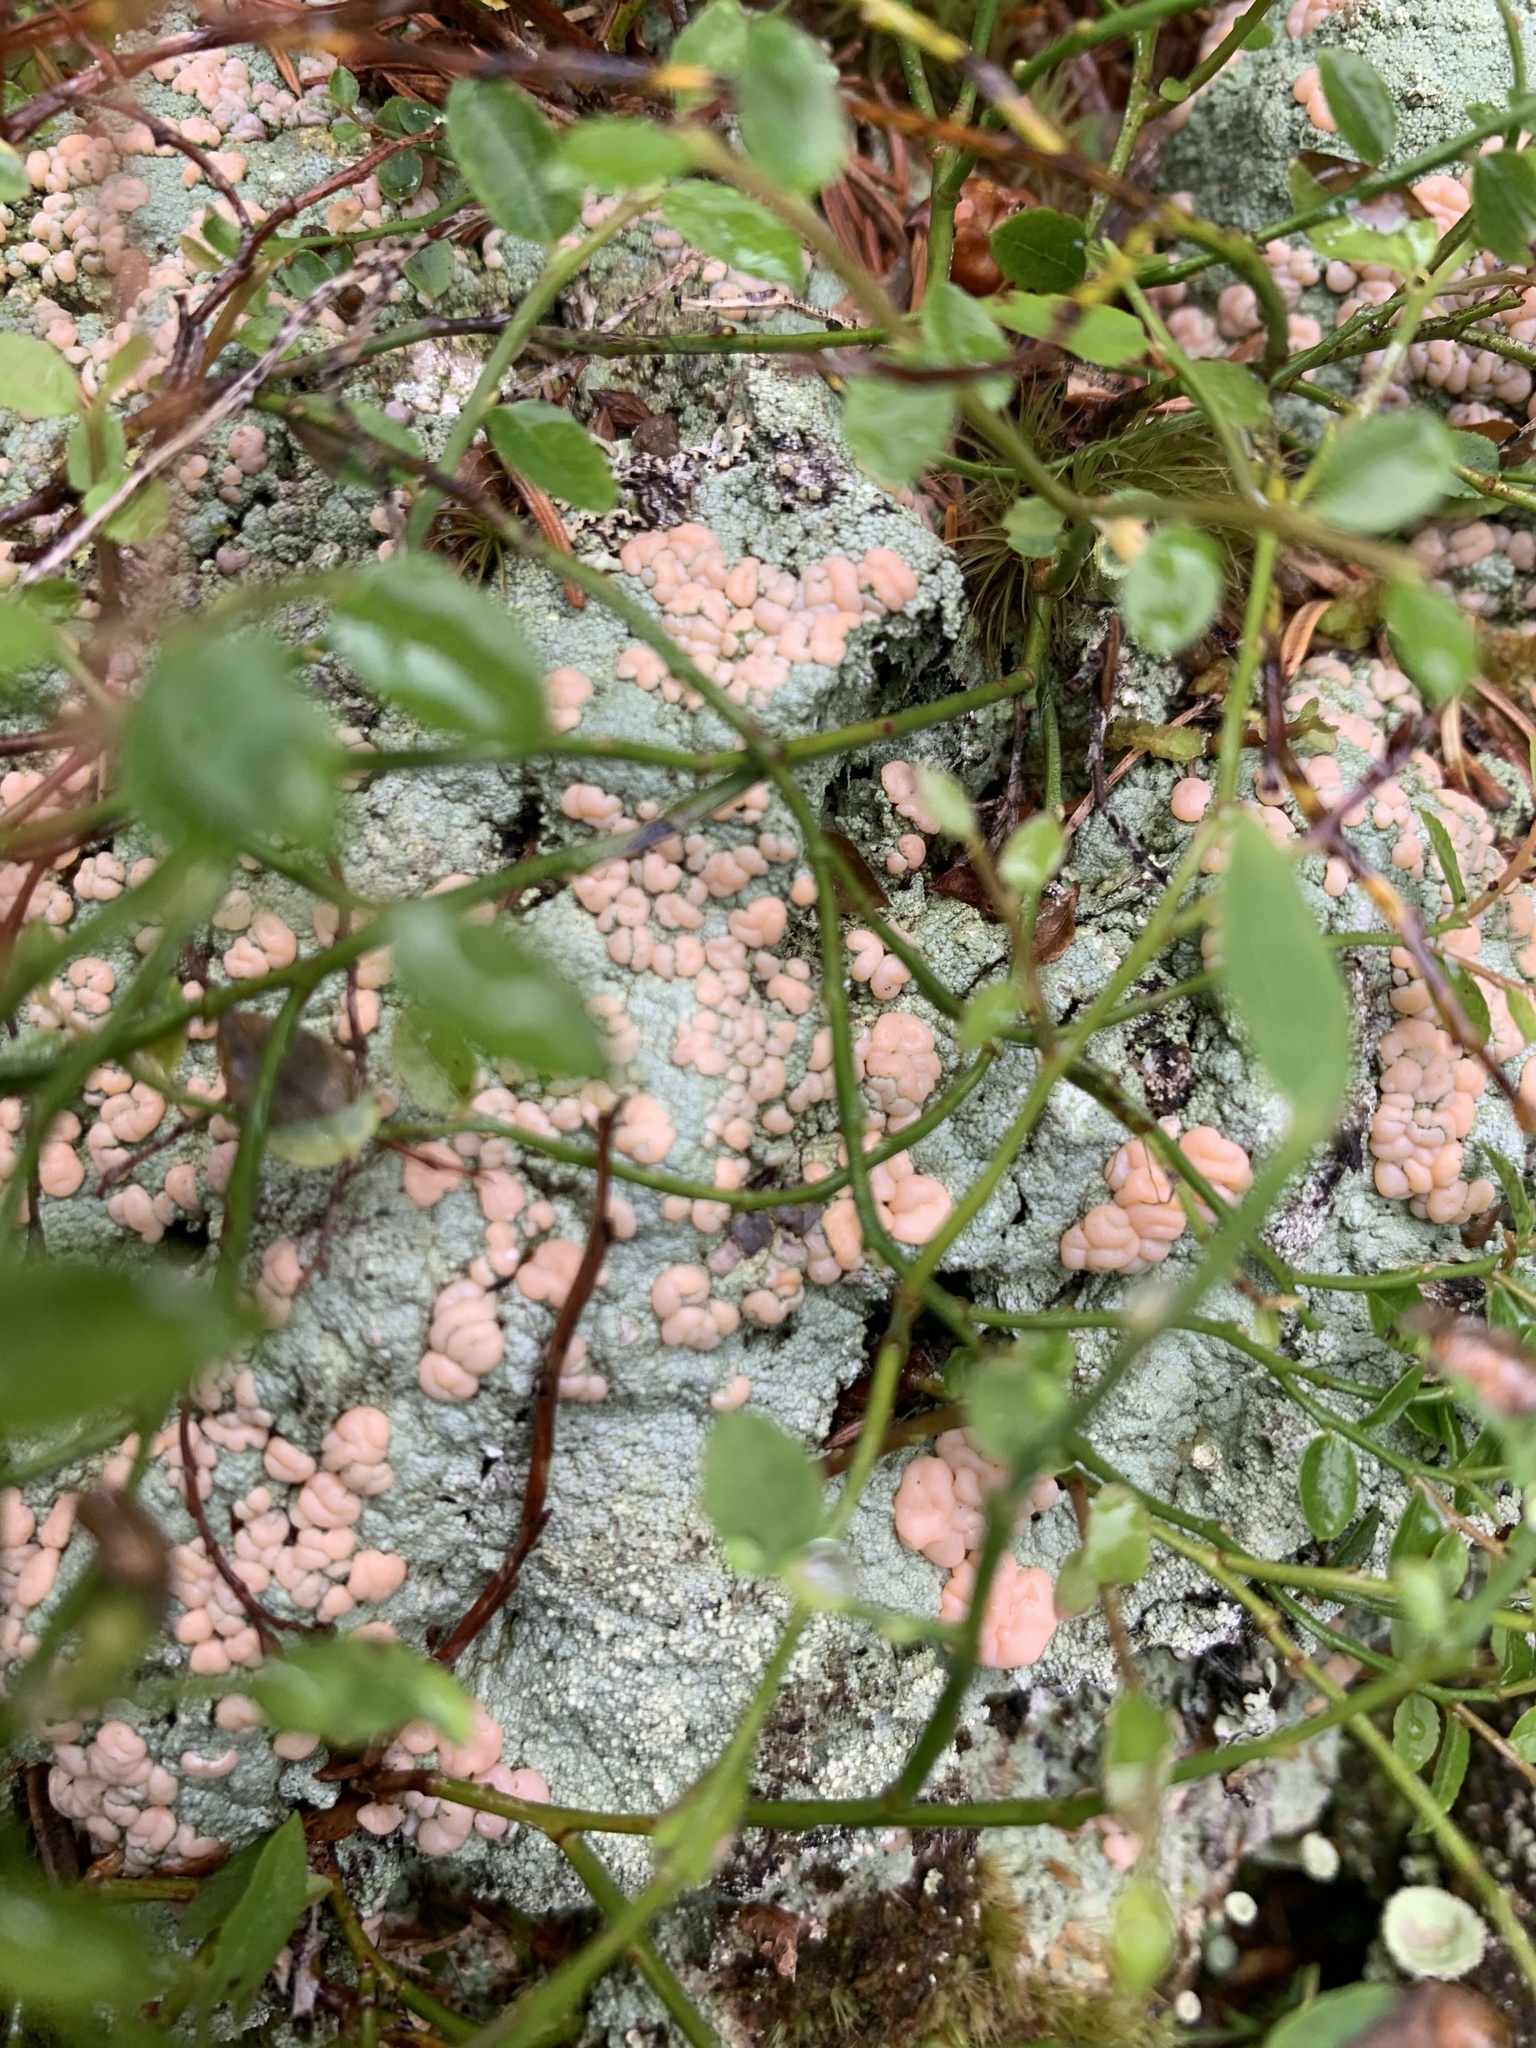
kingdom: Fungi
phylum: Ascomycota
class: Lecanoromycetes
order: Pertusariales
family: Icmadophilaceae
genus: Icmadophila
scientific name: Icmadophila ericetorum
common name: Candy lichen
